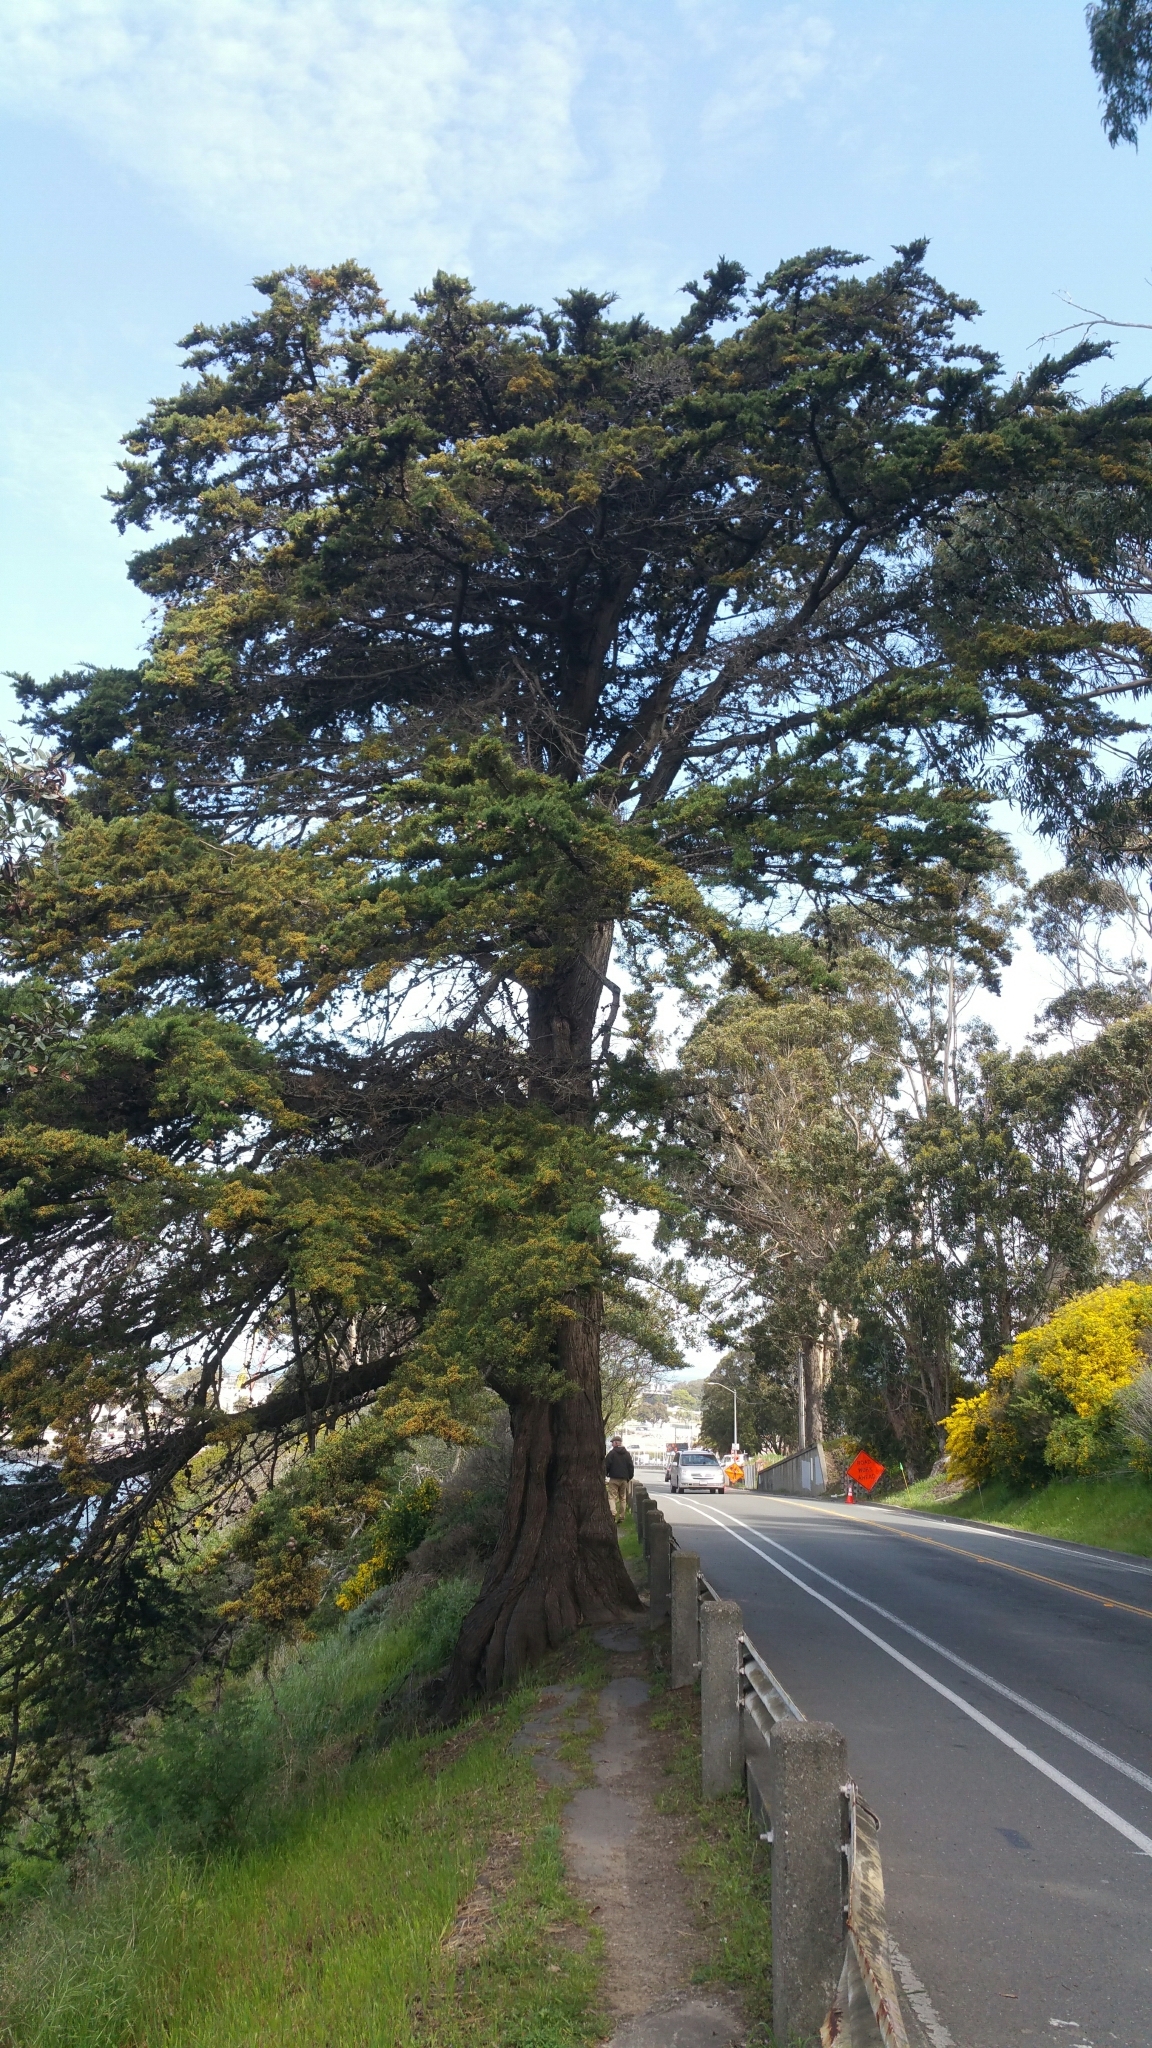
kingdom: Plantae
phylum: Tracheophyta
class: Pinopsida
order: Pinales
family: Cupressaceae
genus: Cupressus
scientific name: Cupressus macrocarpa
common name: Monterey cypress
